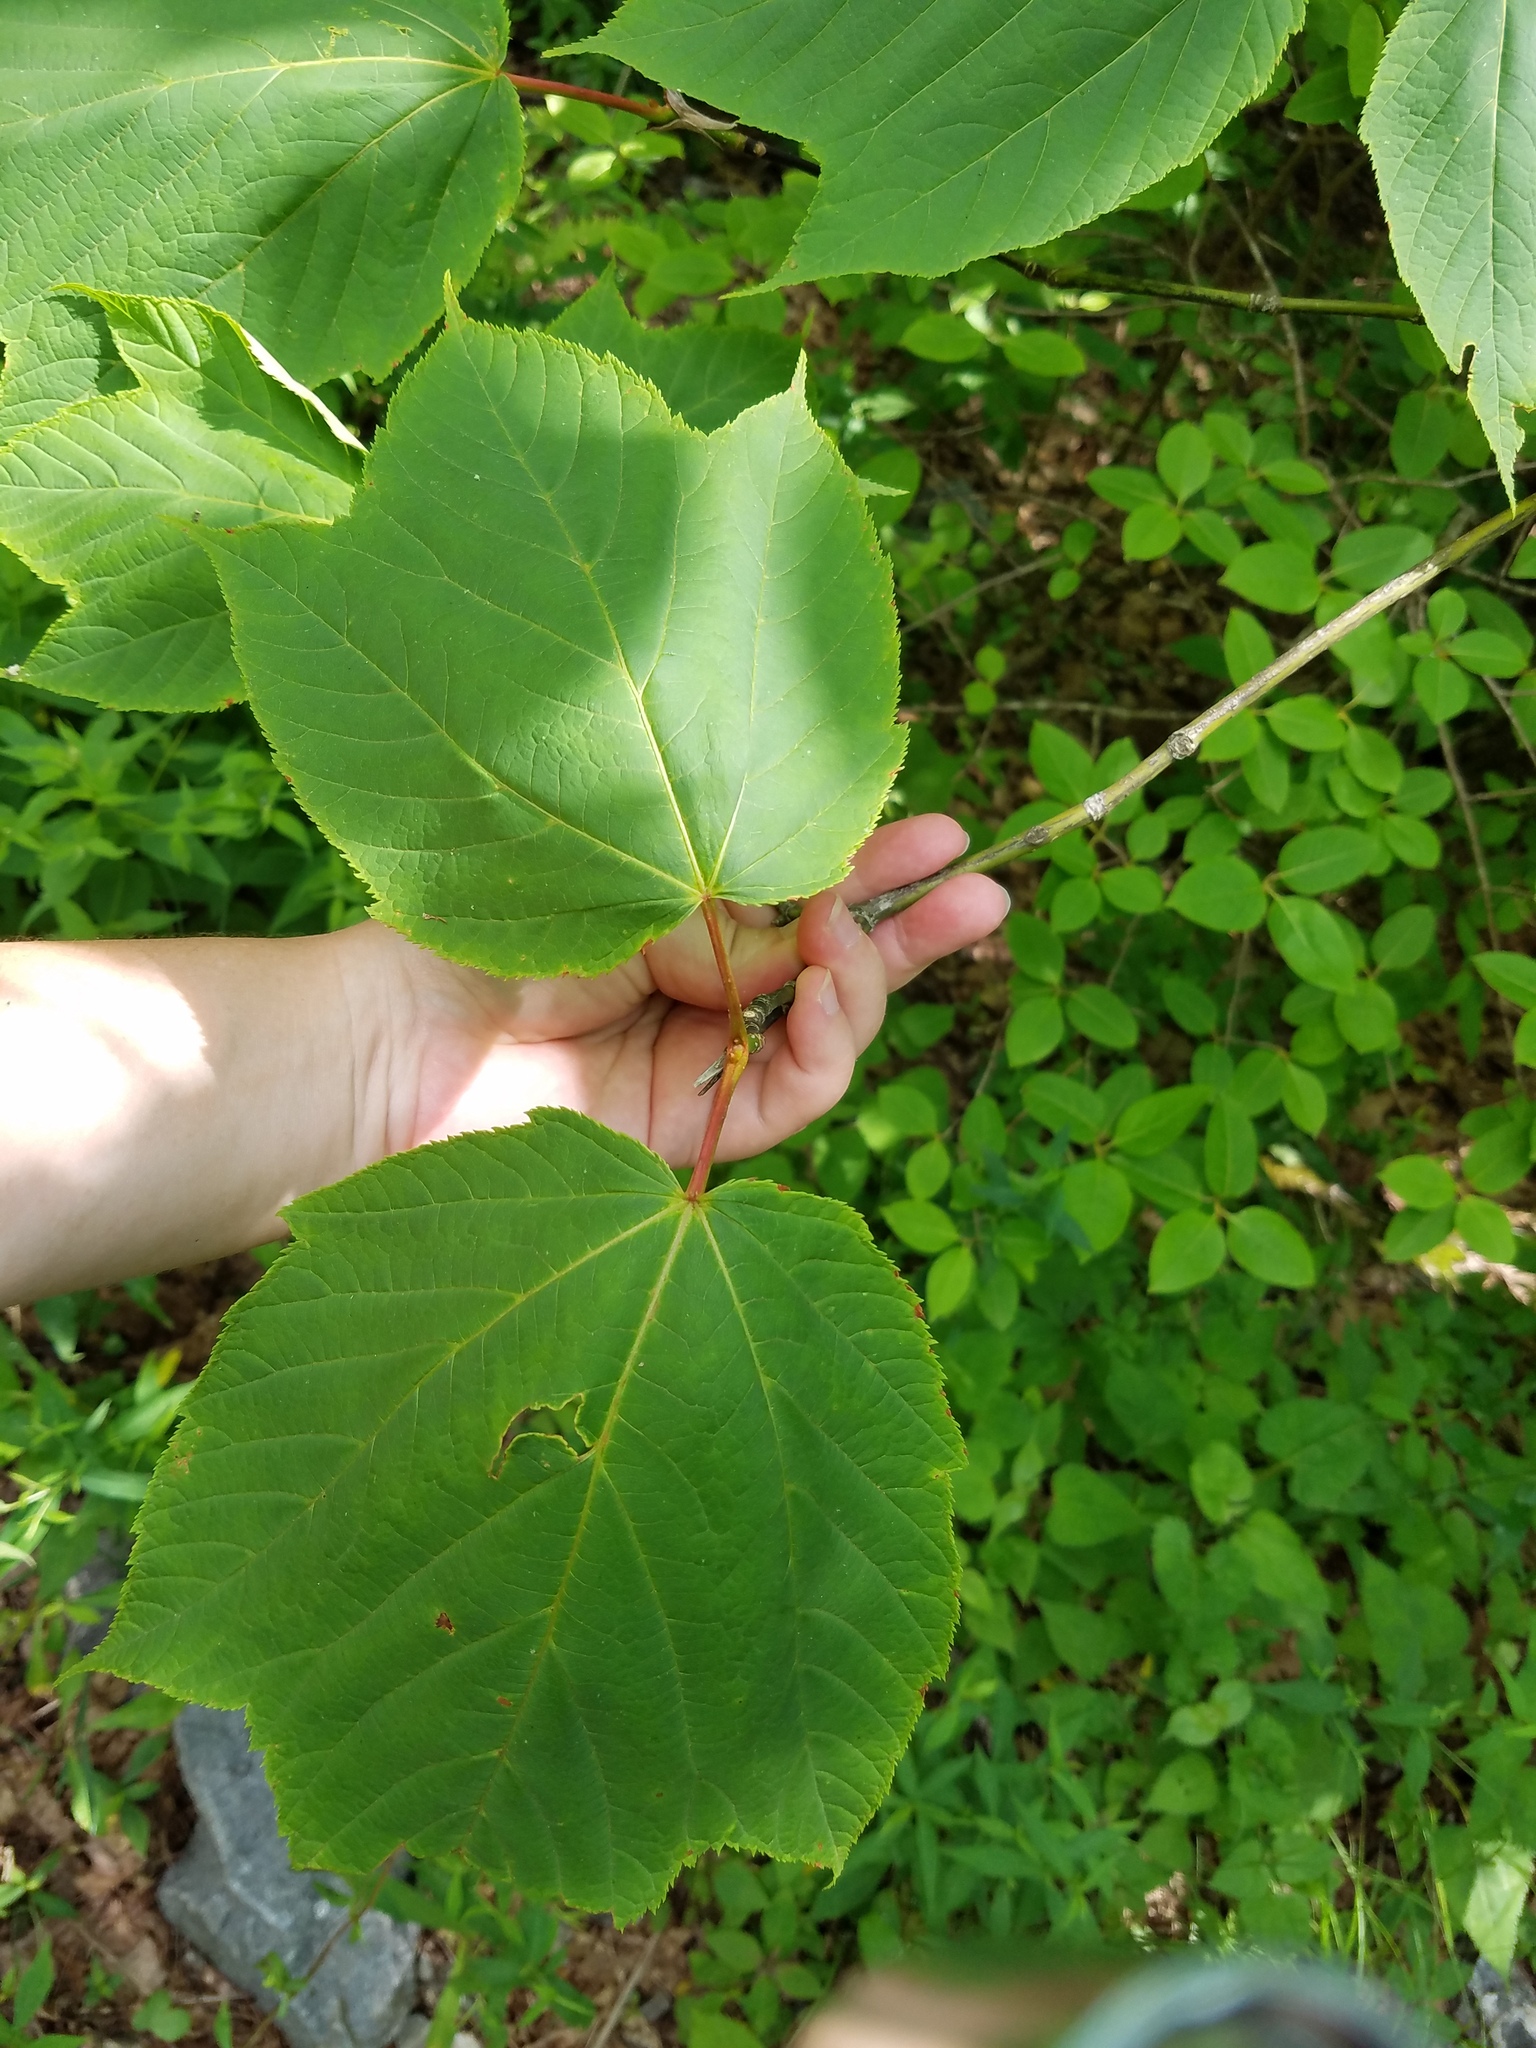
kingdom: Plantae
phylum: Tracheophyta
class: Magnoliopsida
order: Sapindales
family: Sapindaceae
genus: Acer
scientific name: Acer pensylvanicum
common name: Moosewood
